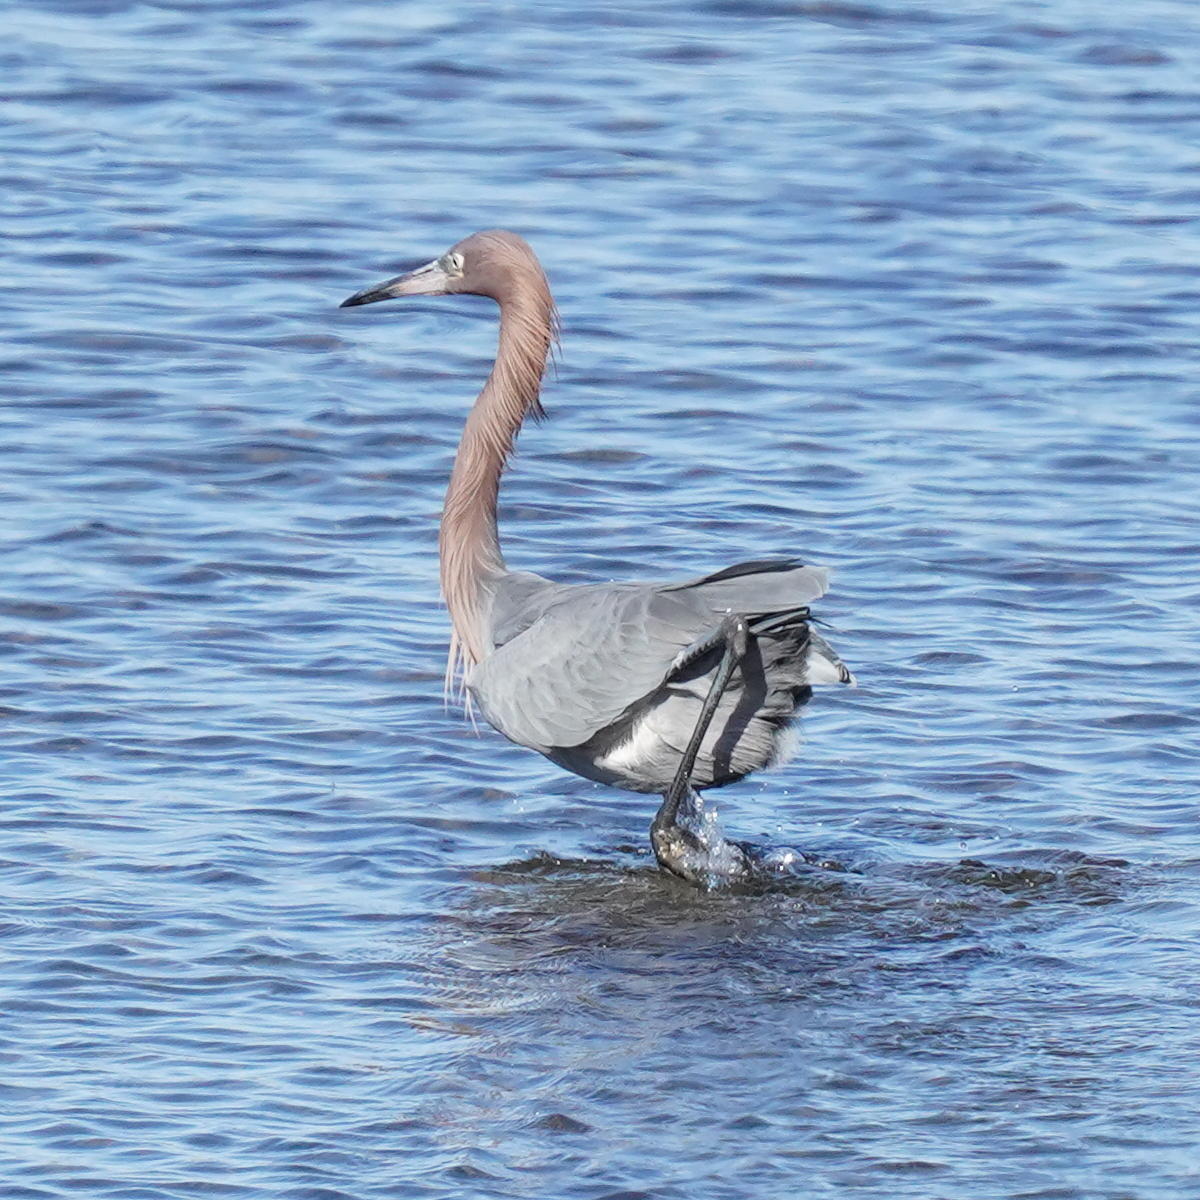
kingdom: Animalia
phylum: Chordata
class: Aves
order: Pelecaniformes
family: Ardeidae
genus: Egretta
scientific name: Egretta rufescens
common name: Reddish egret
